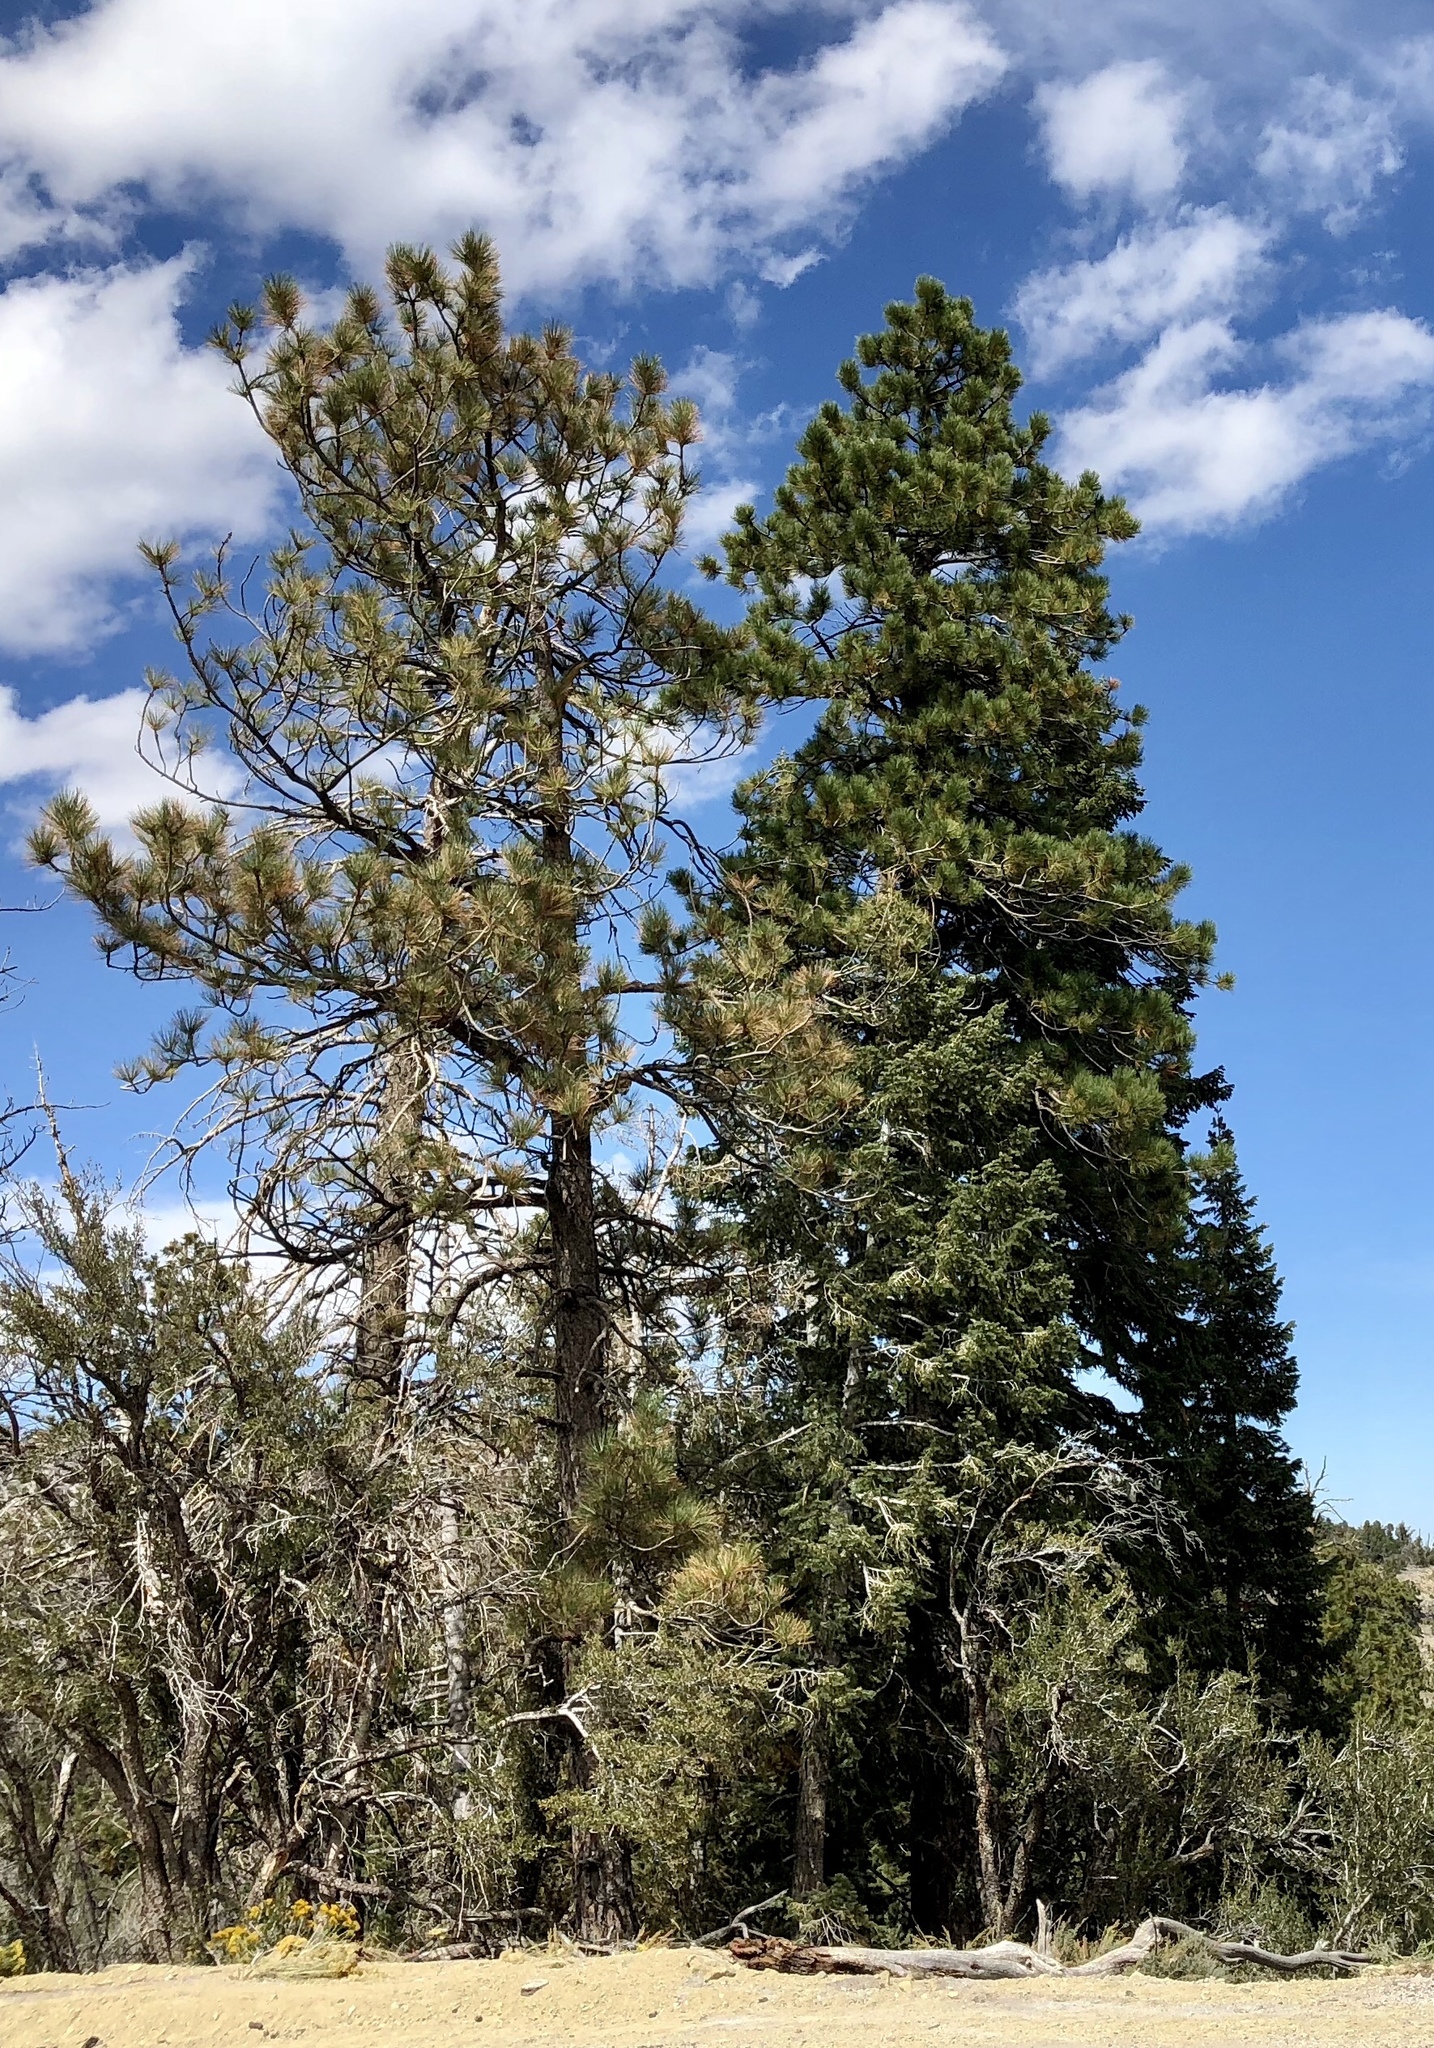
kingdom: Plantae
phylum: Tracheophyta
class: Pinopsida
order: Pinales
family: Pinaceae
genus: Pinus
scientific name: Pinus ponderosa
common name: Western yellow-pine
